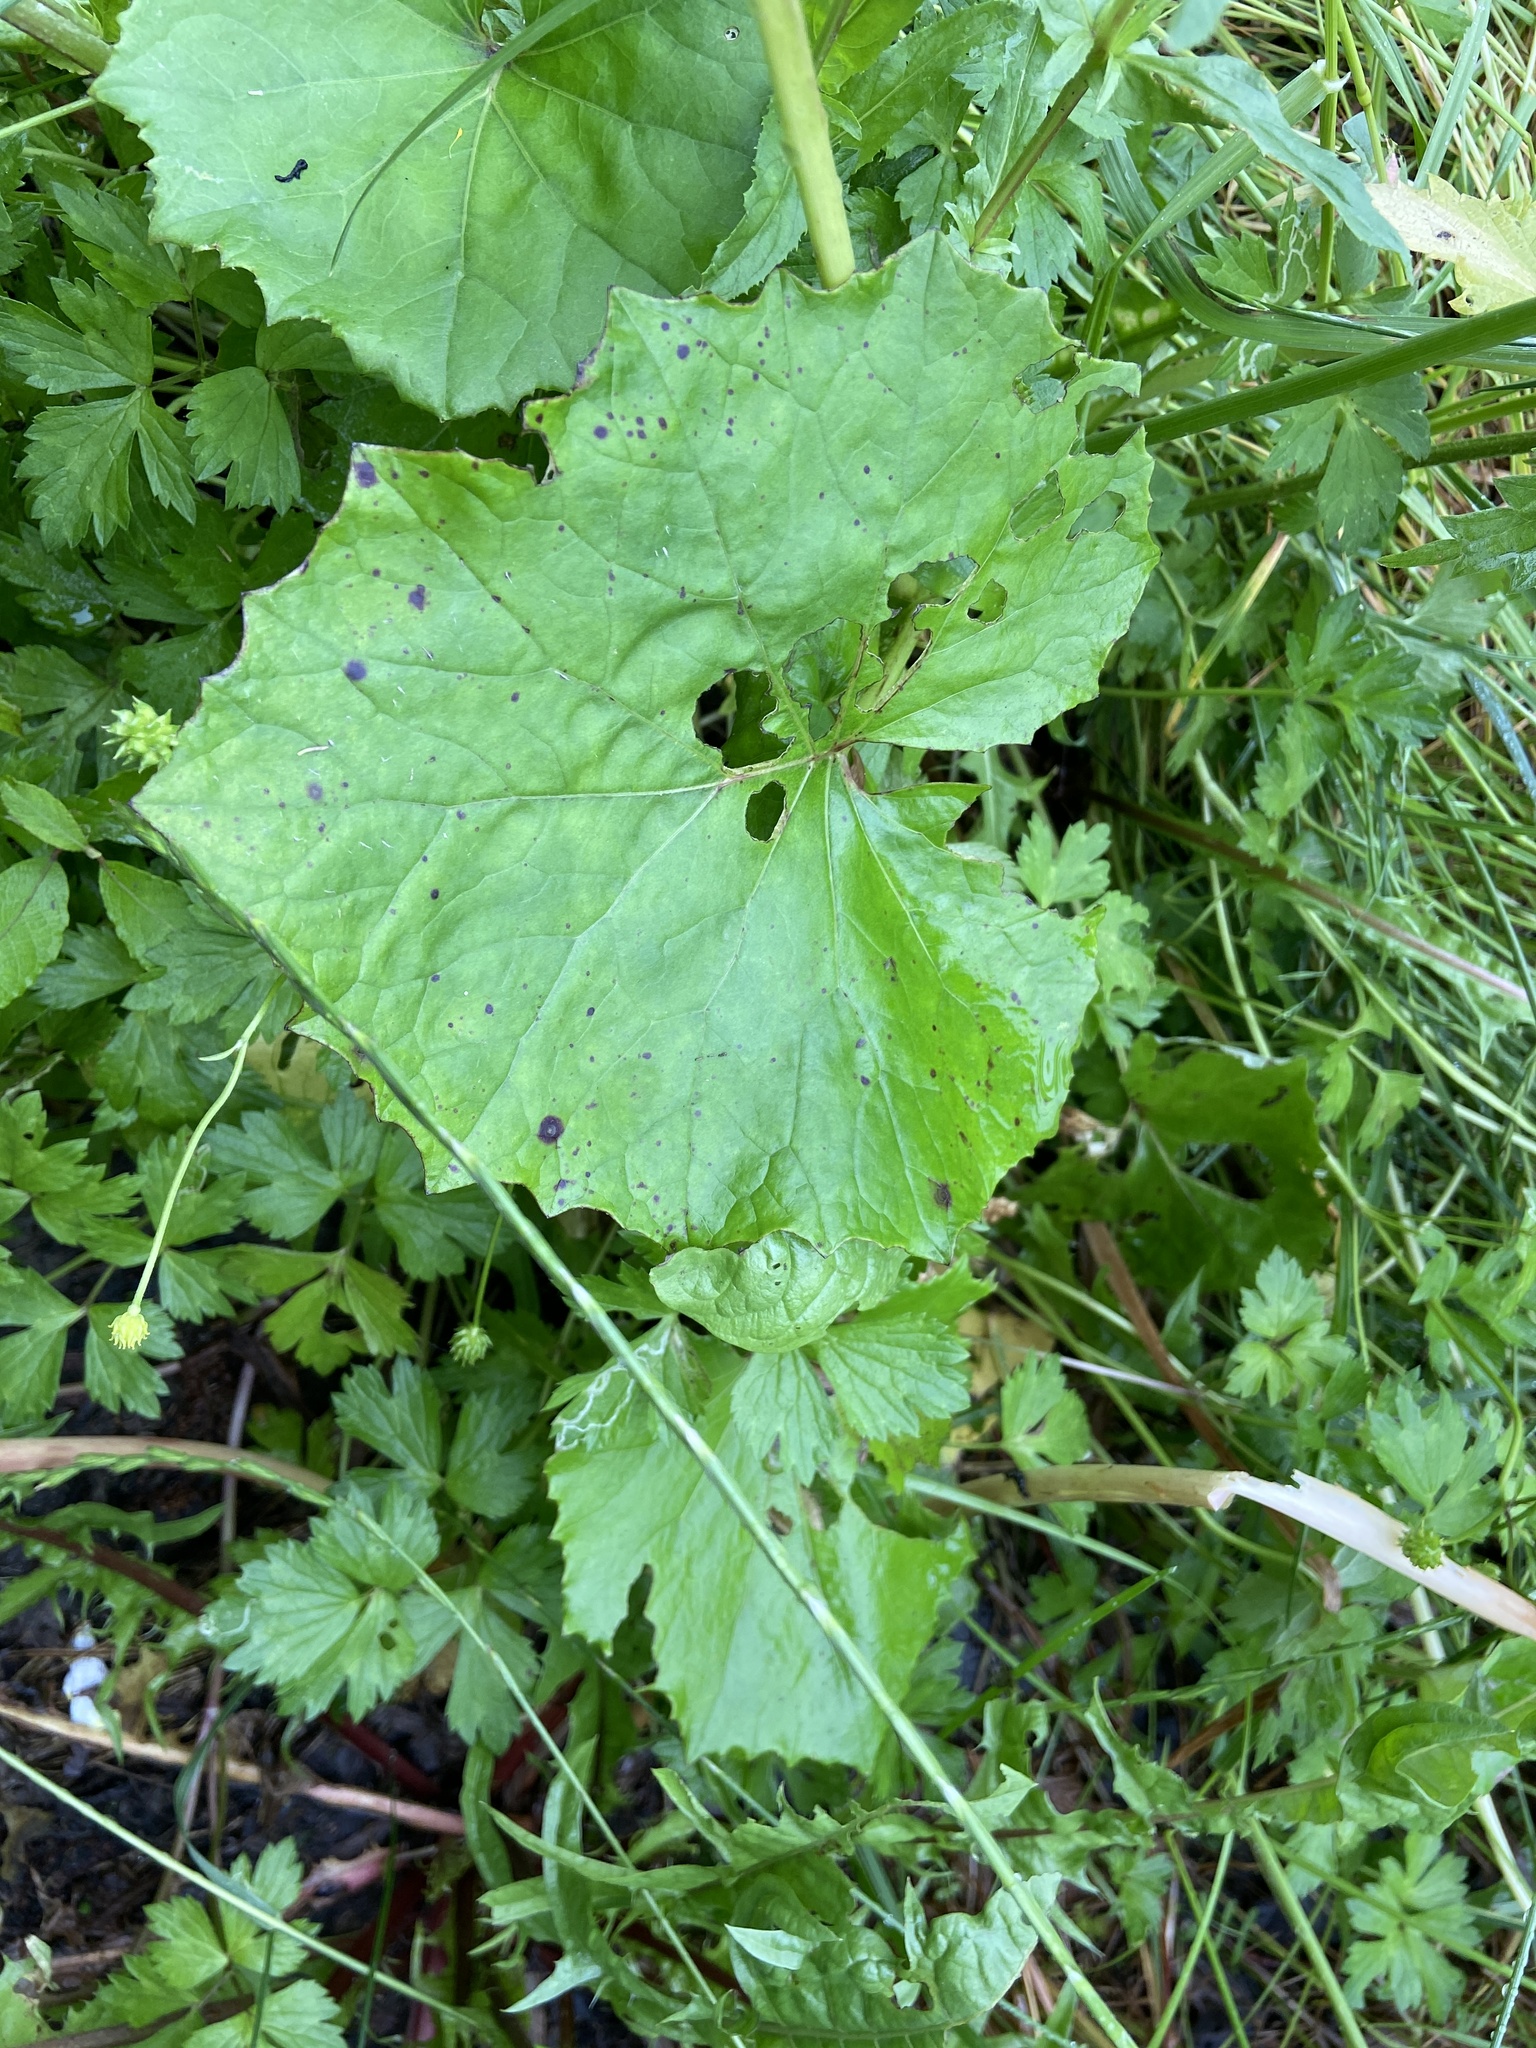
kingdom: Plantae
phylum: Tracheophyta
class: Magnoliopsida
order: Brassicales
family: Brassicaceae
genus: Alliaria
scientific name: Alliaria petiolata
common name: Garlic mustard
